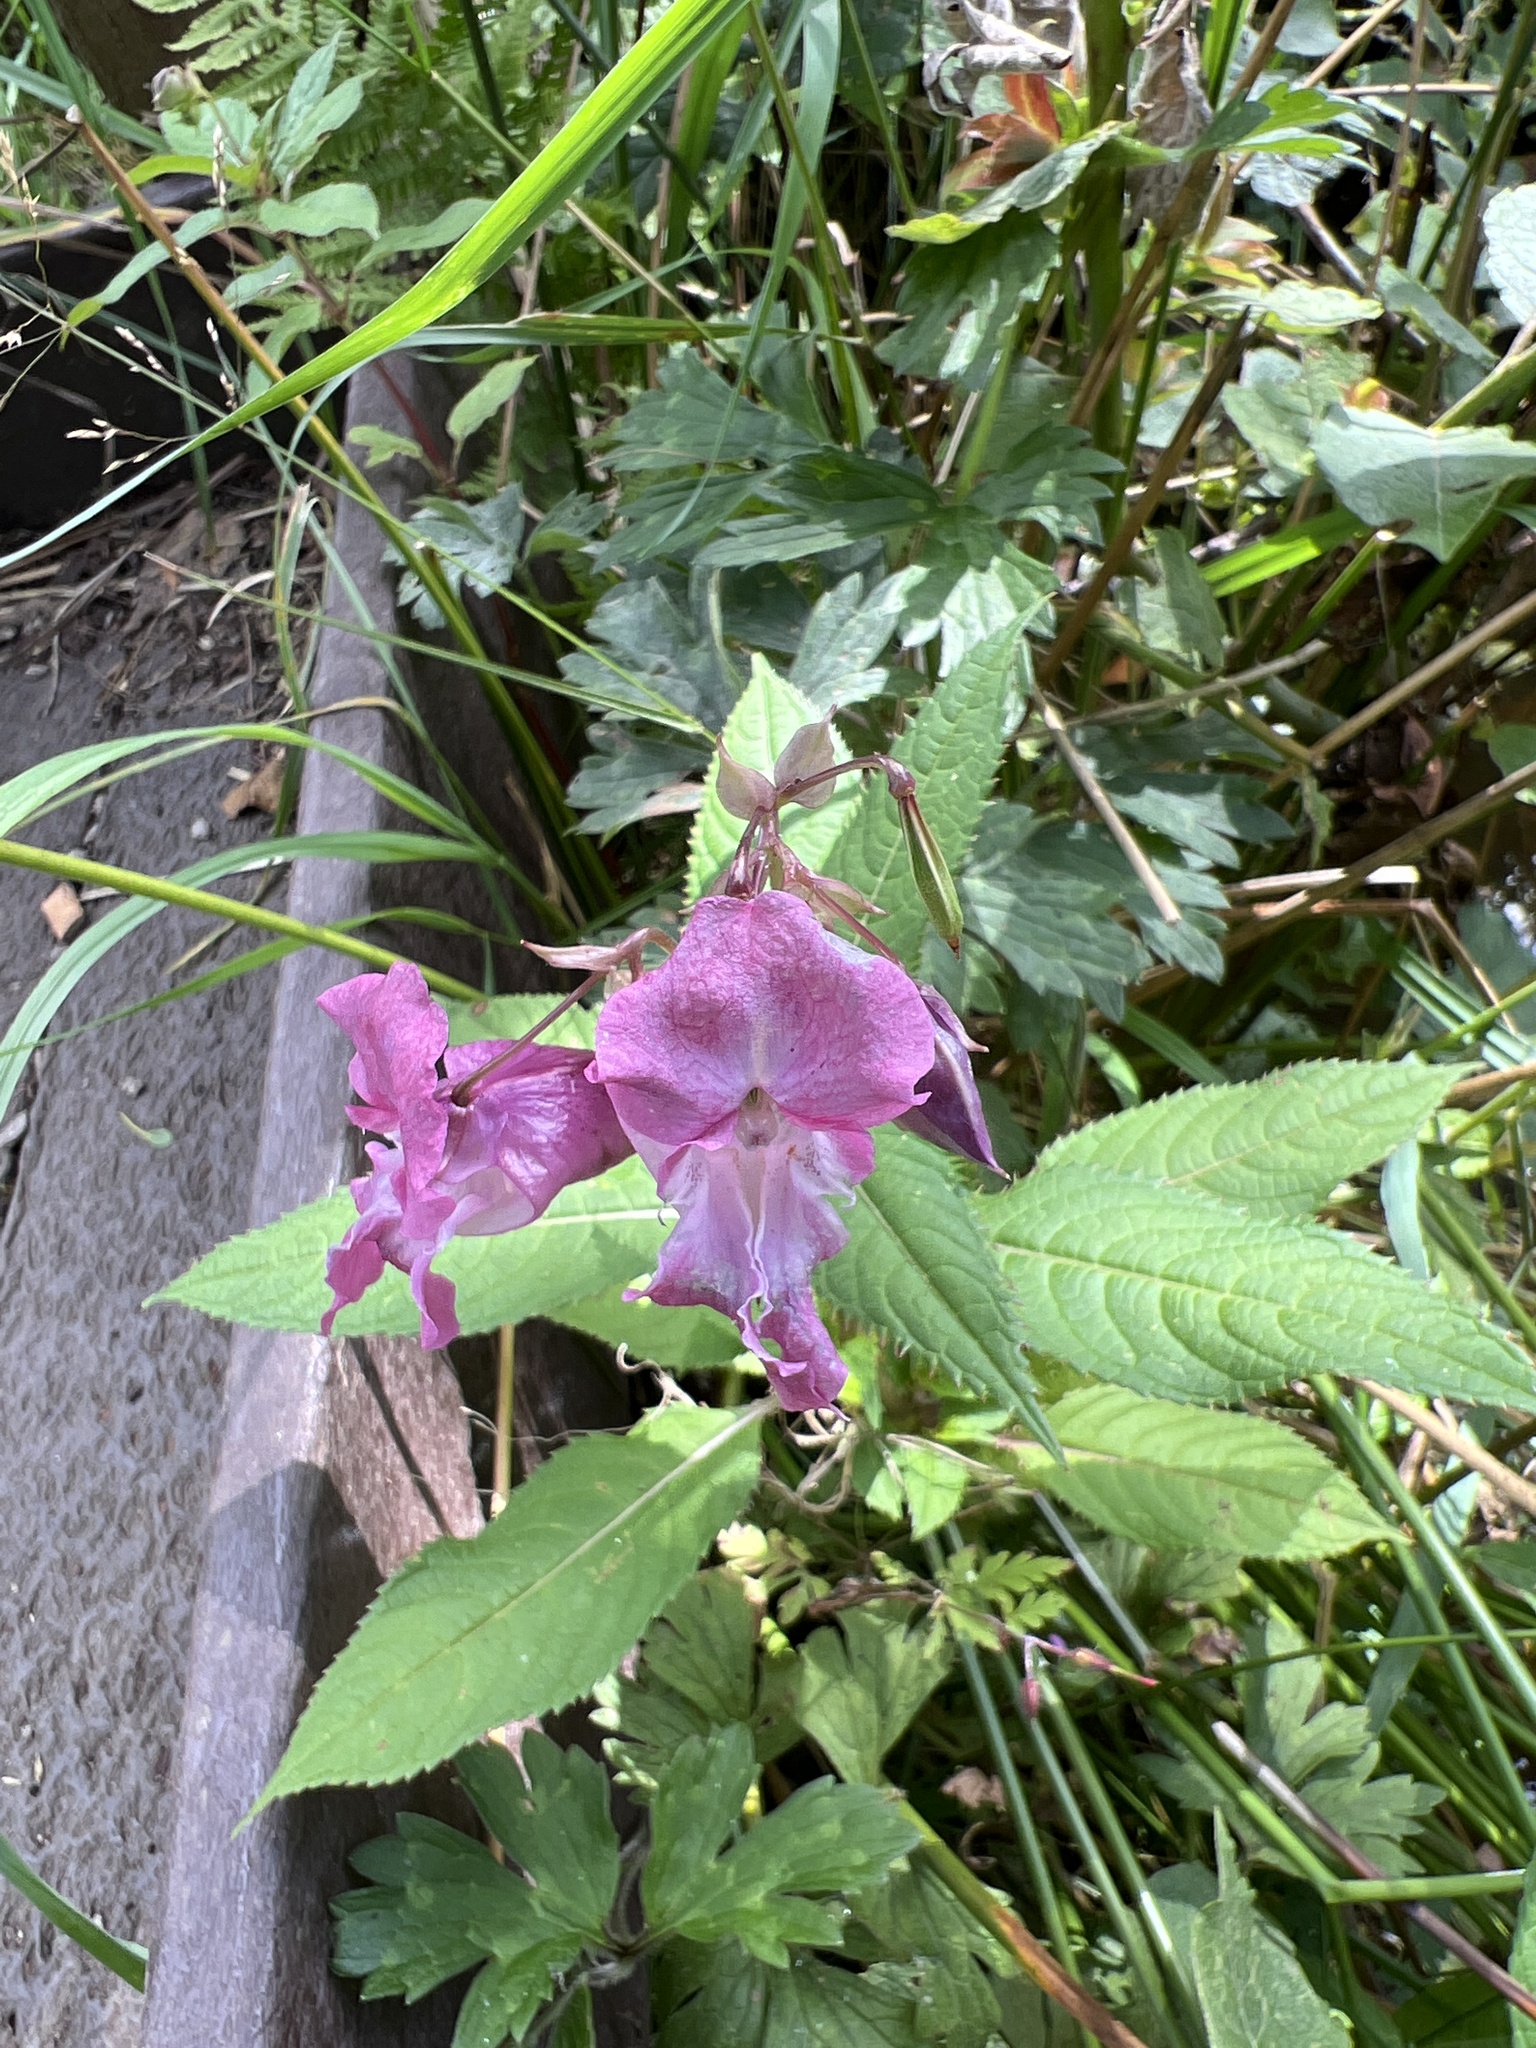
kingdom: Plantae
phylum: Tracheophyta
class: Magnoliopsida
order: Ericales
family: Balsaminaceae
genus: Impatiens
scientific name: Impatiens glandulifera
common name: Himalayan balsam
